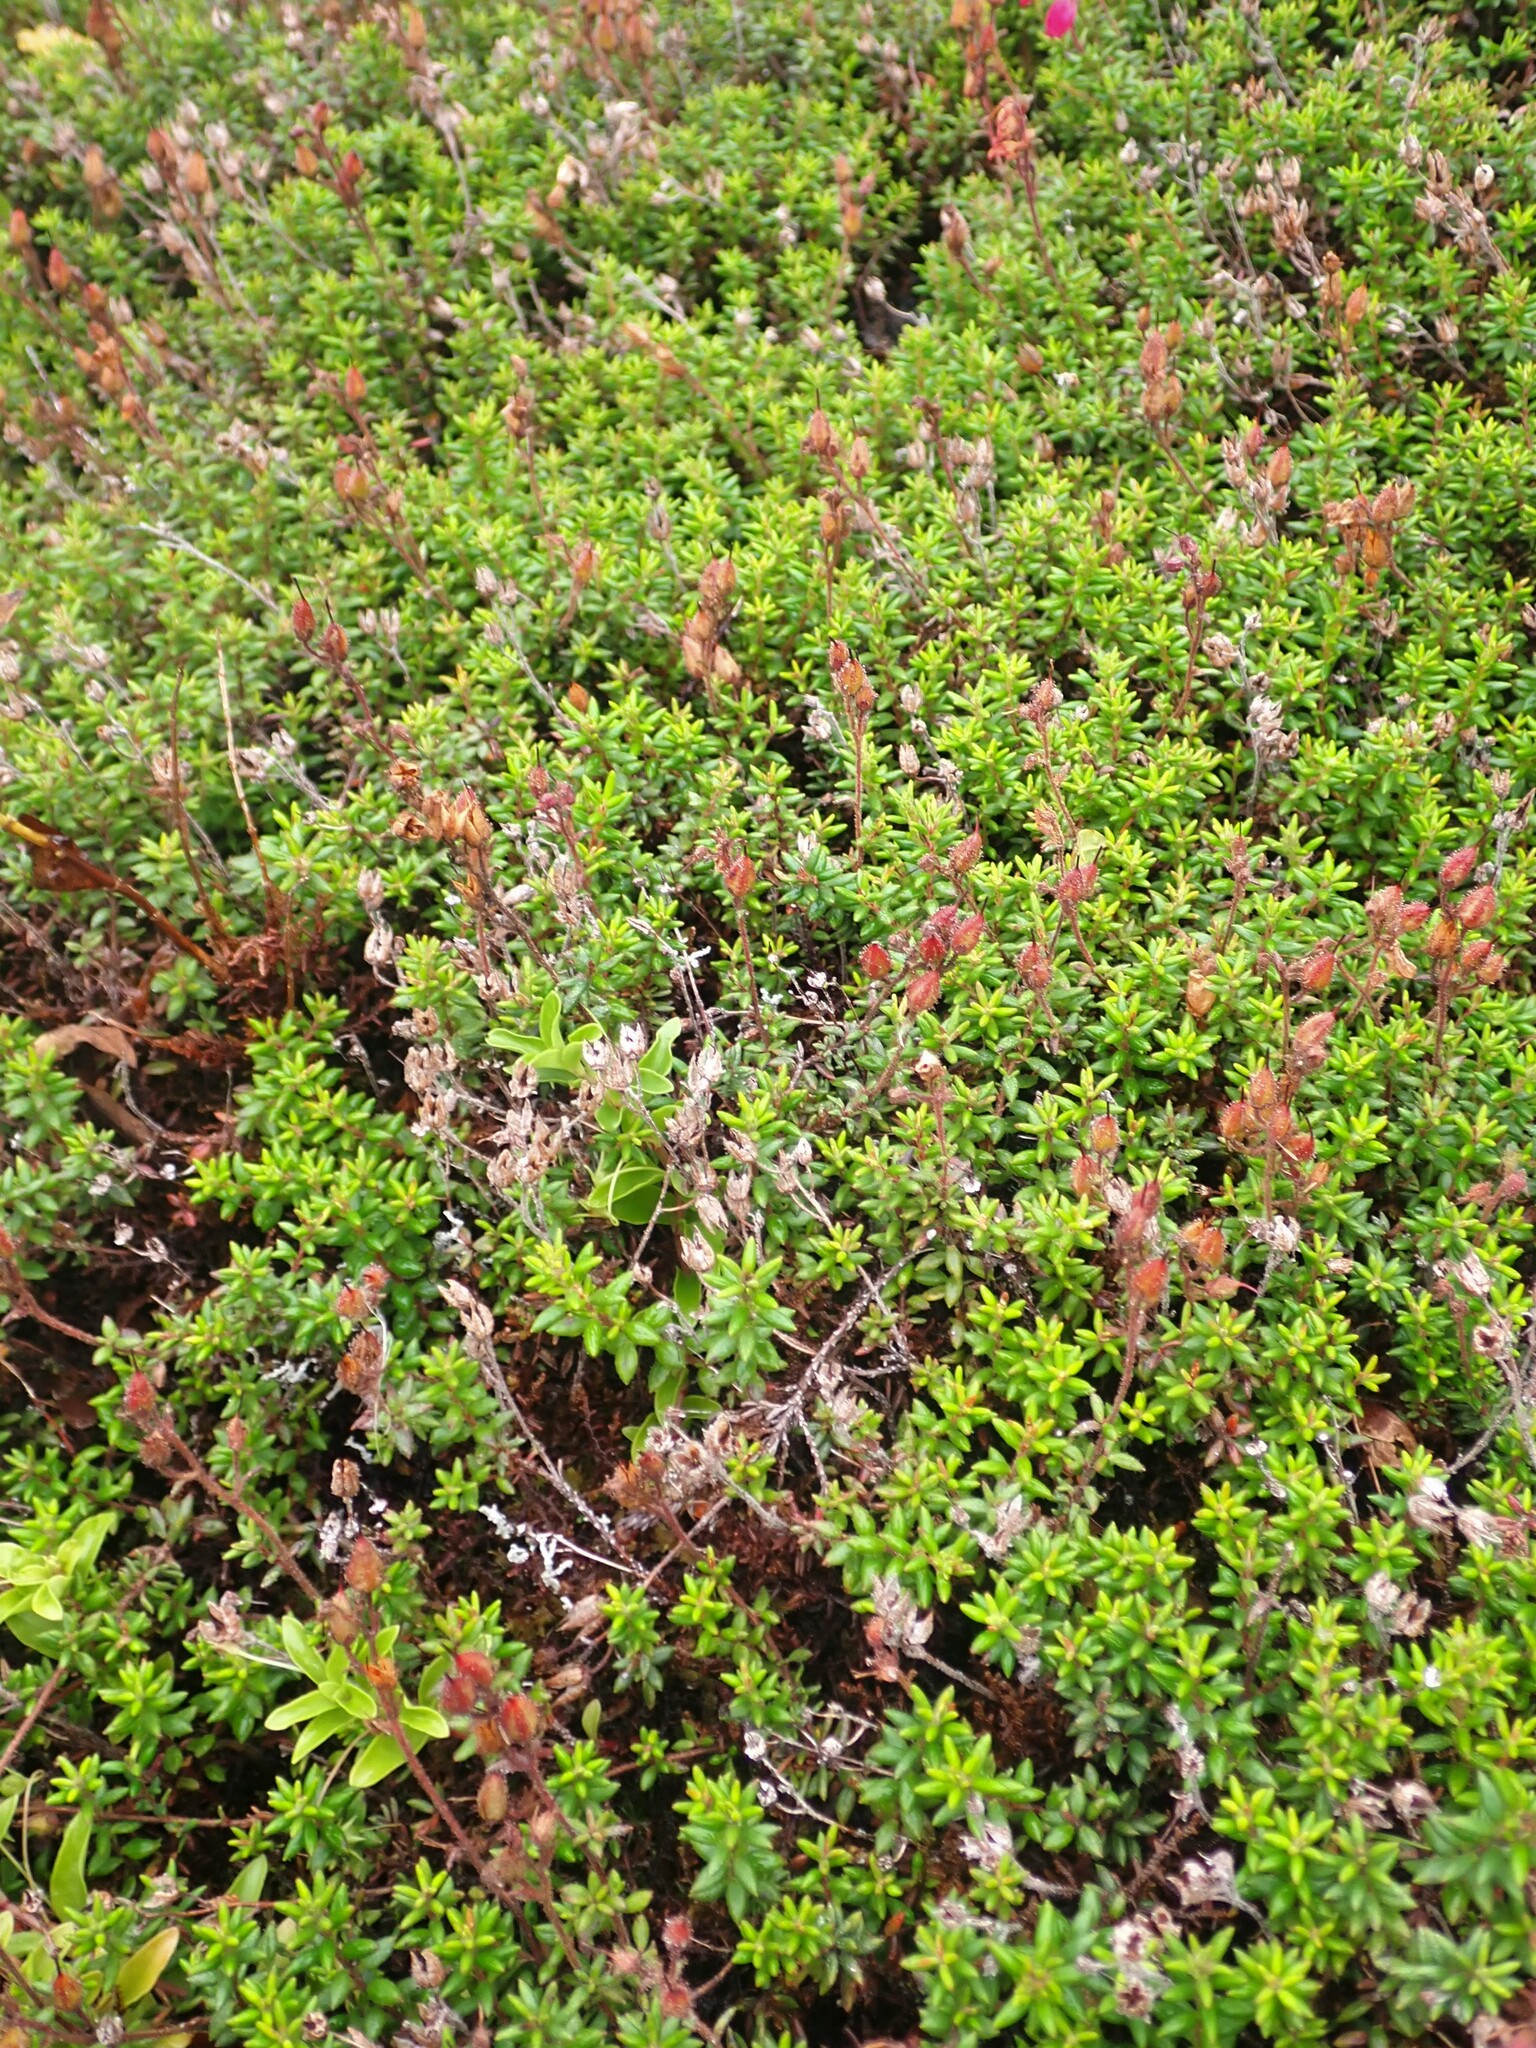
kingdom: Plantae
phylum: Tracheophyta
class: Magnoliopsida
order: Ericales
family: Ericaceae
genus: Daboecia
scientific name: Daboecia cantabrica
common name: St. dabeoc's-heath
